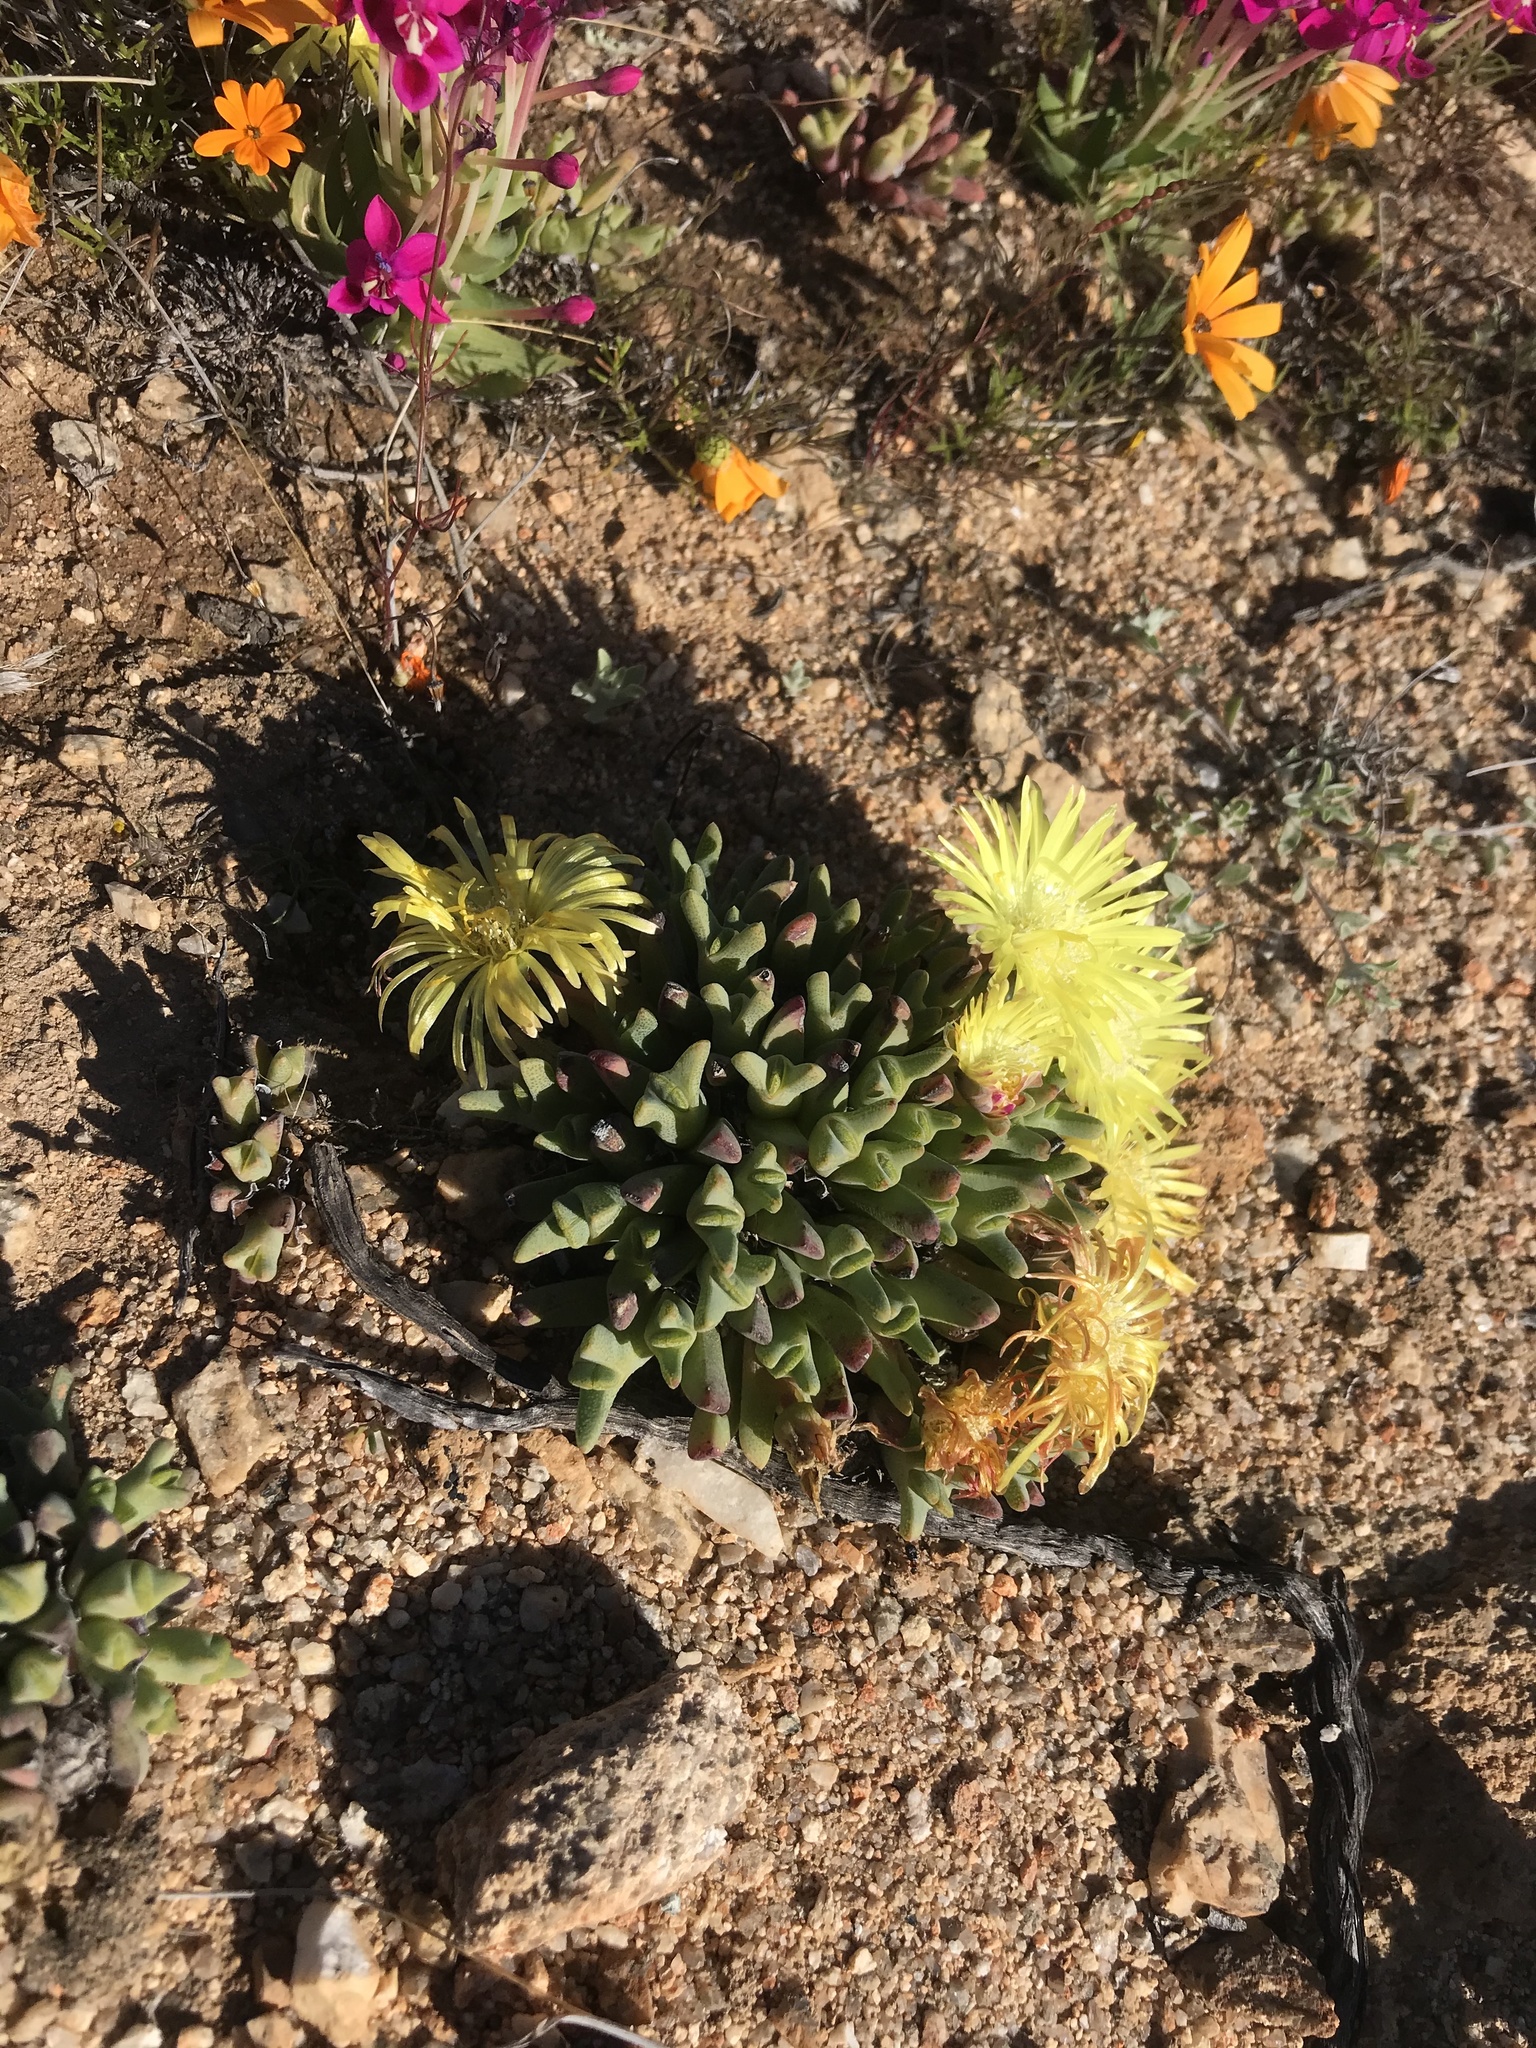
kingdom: Plantae
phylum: Tracheophyta
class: Magnoliopsida
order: Caryophyllales
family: Aizoaceae
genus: Cheiridopsis
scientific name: Cheiridopsis namaquensis
